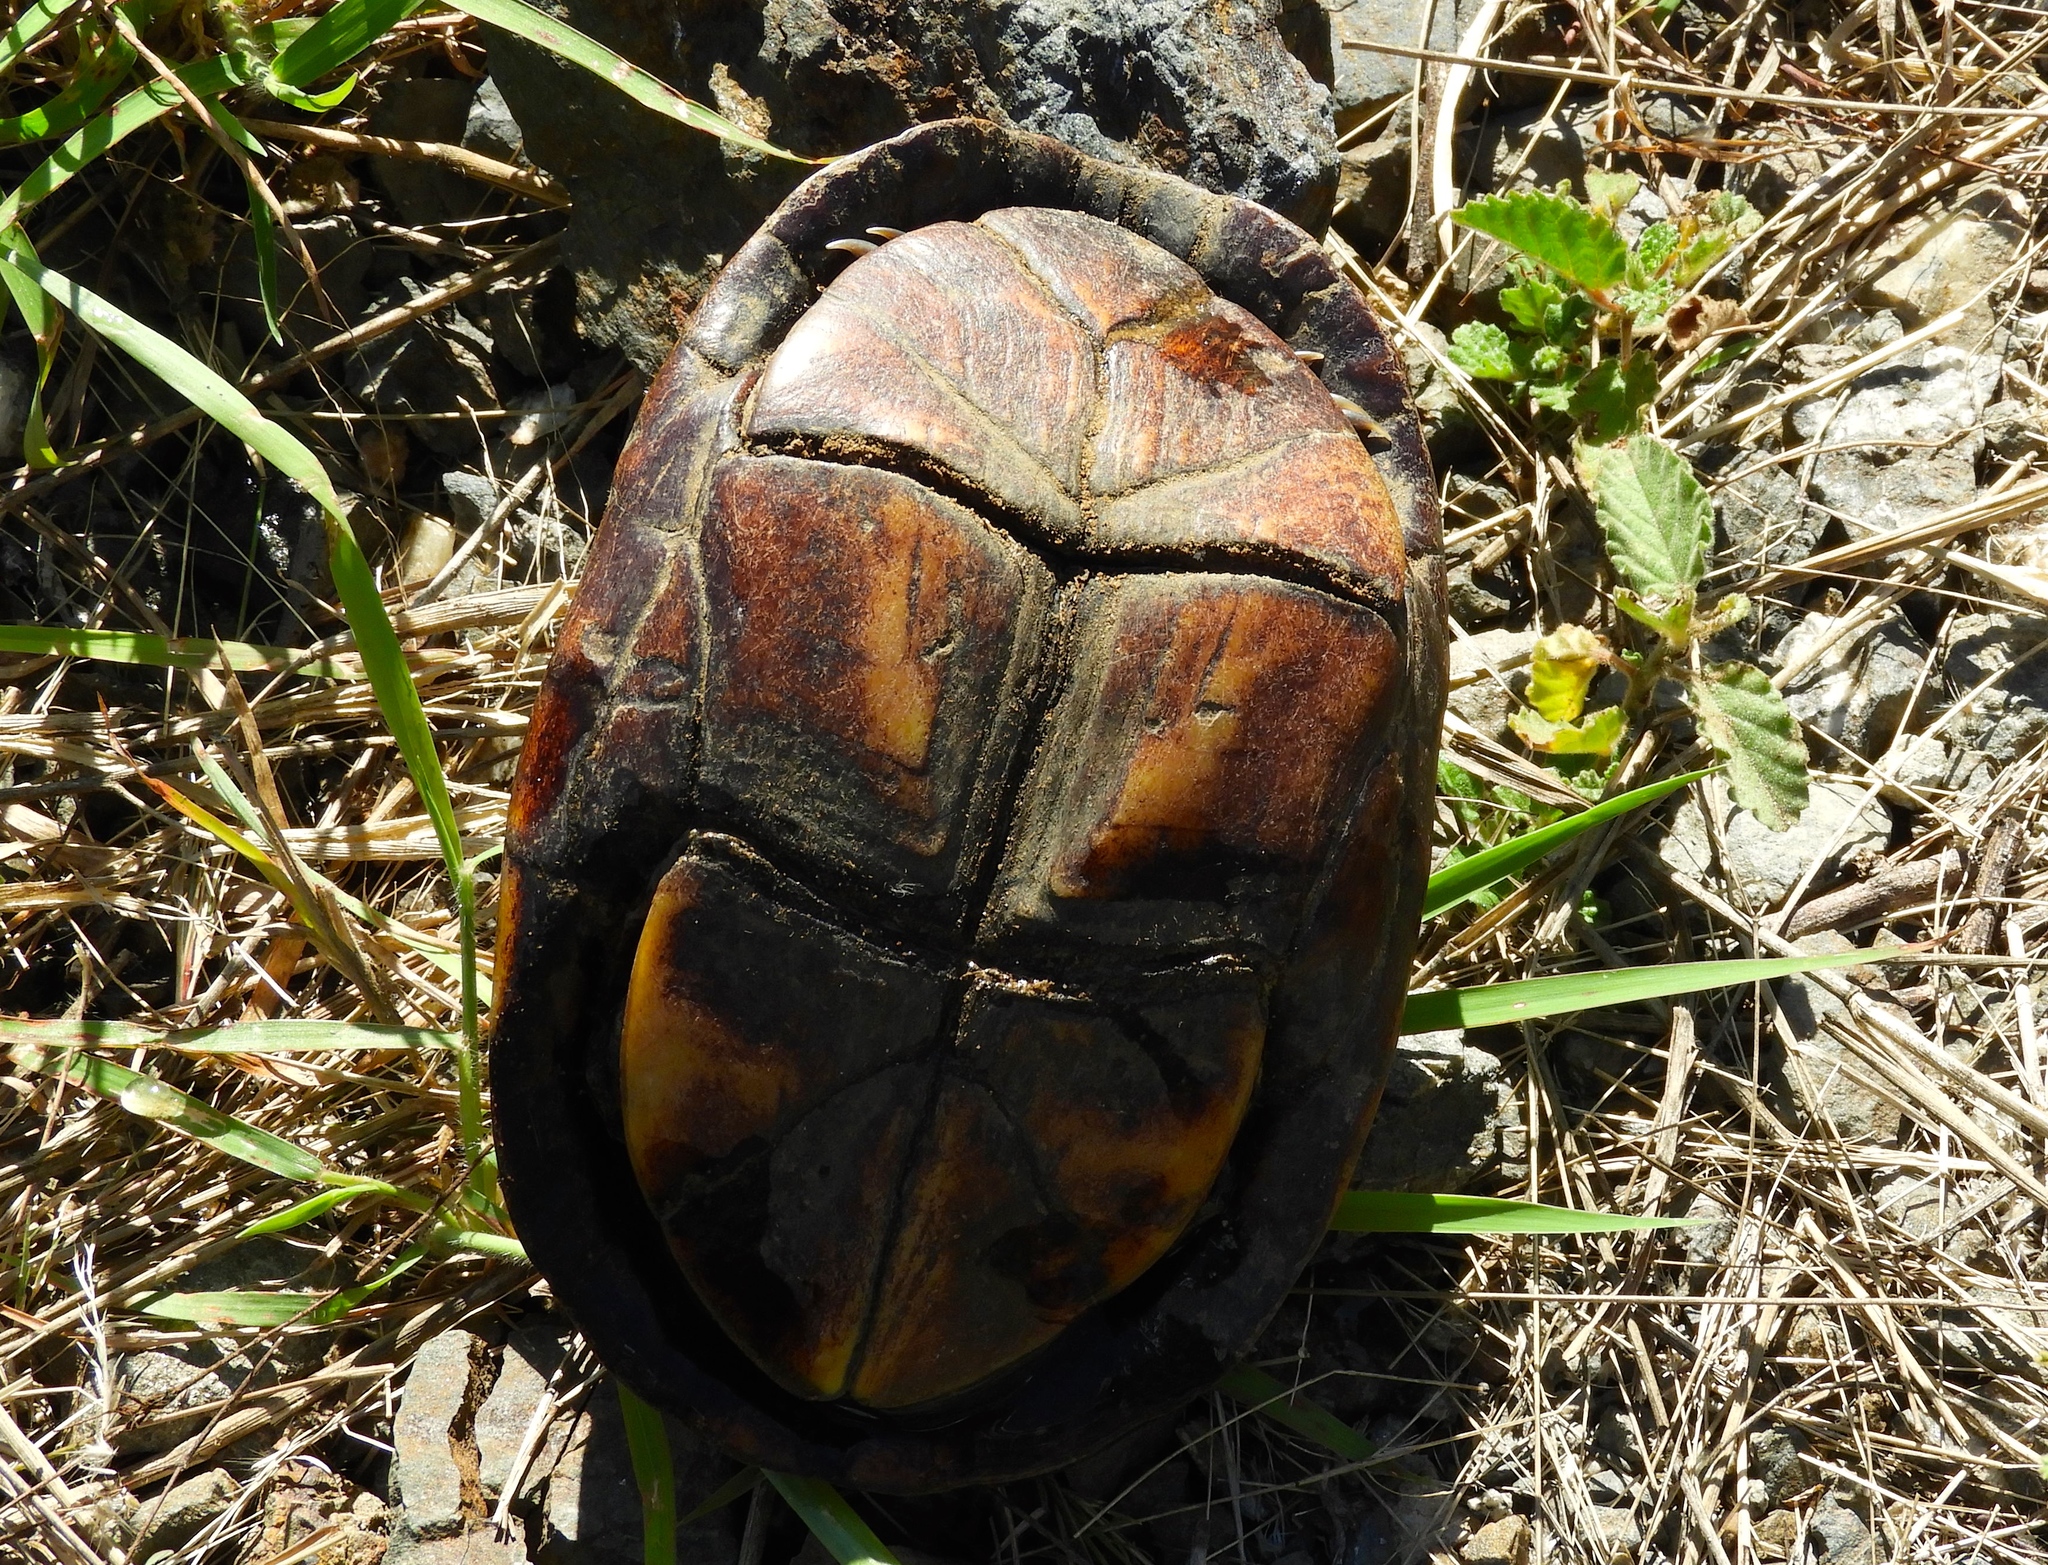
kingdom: Animalia
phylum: Chordata
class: Testudines
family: Kinosternidae
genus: Kinosternon
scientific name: Kinosternon integrum
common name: Mexican mud turtle
